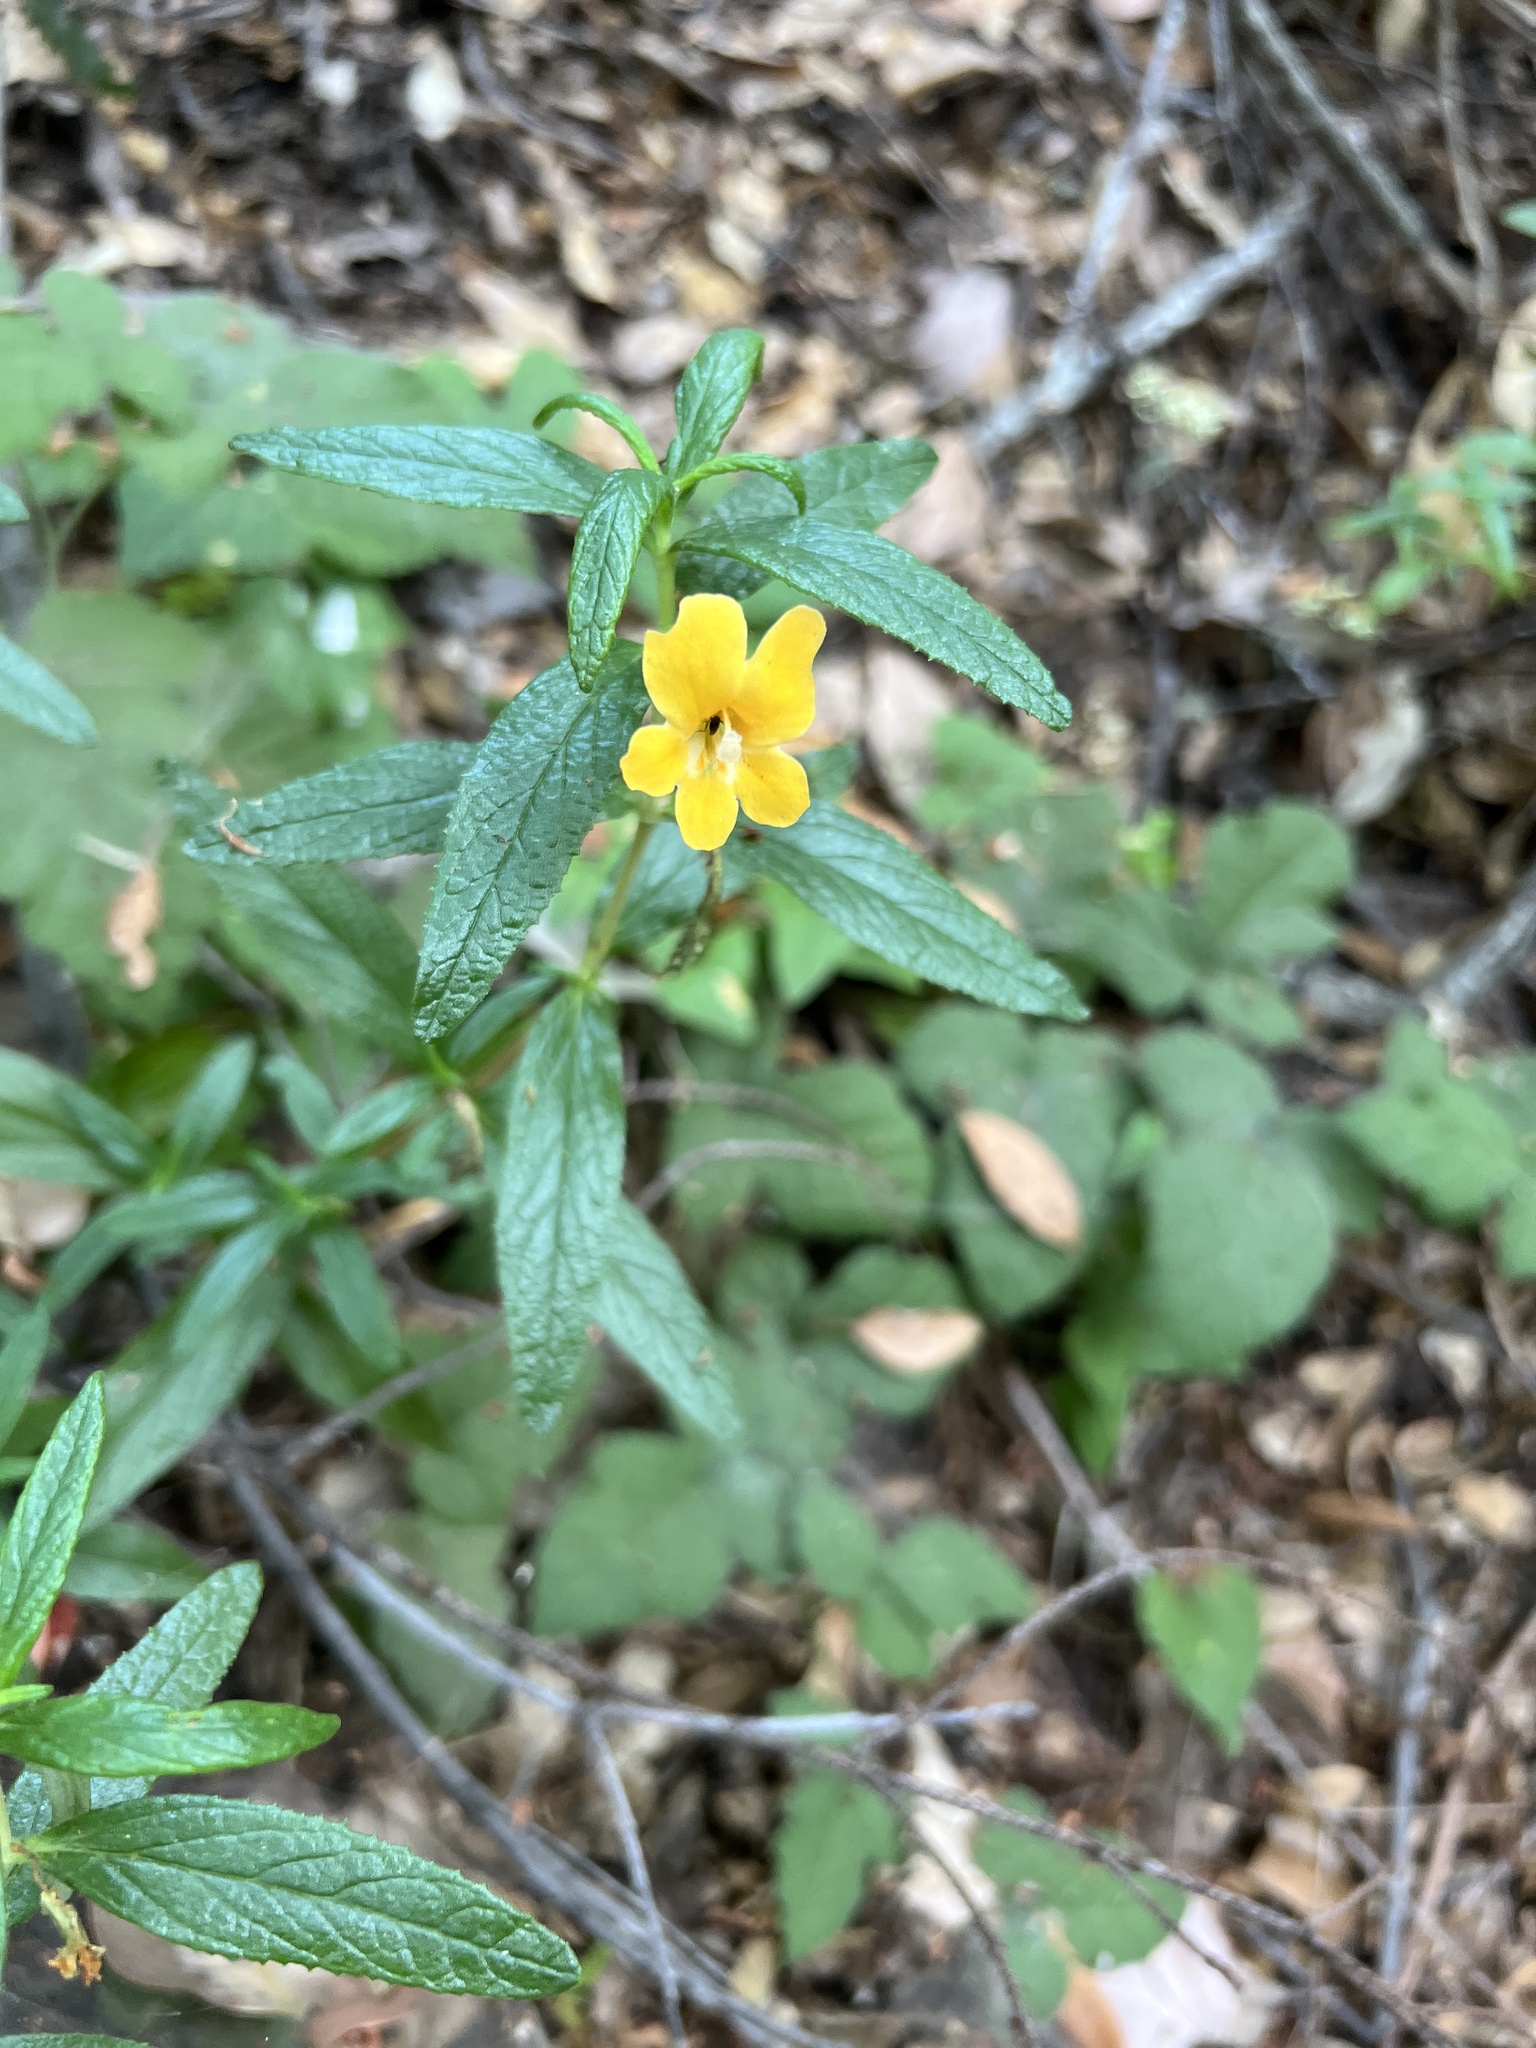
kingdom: Plantae
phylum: Tracheophyta
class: Magnoliopsida
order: Lamiales
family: Phrymaceae
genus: Diplacus
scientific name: Diplacus aurantiacus
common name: Bush monkey-flower
